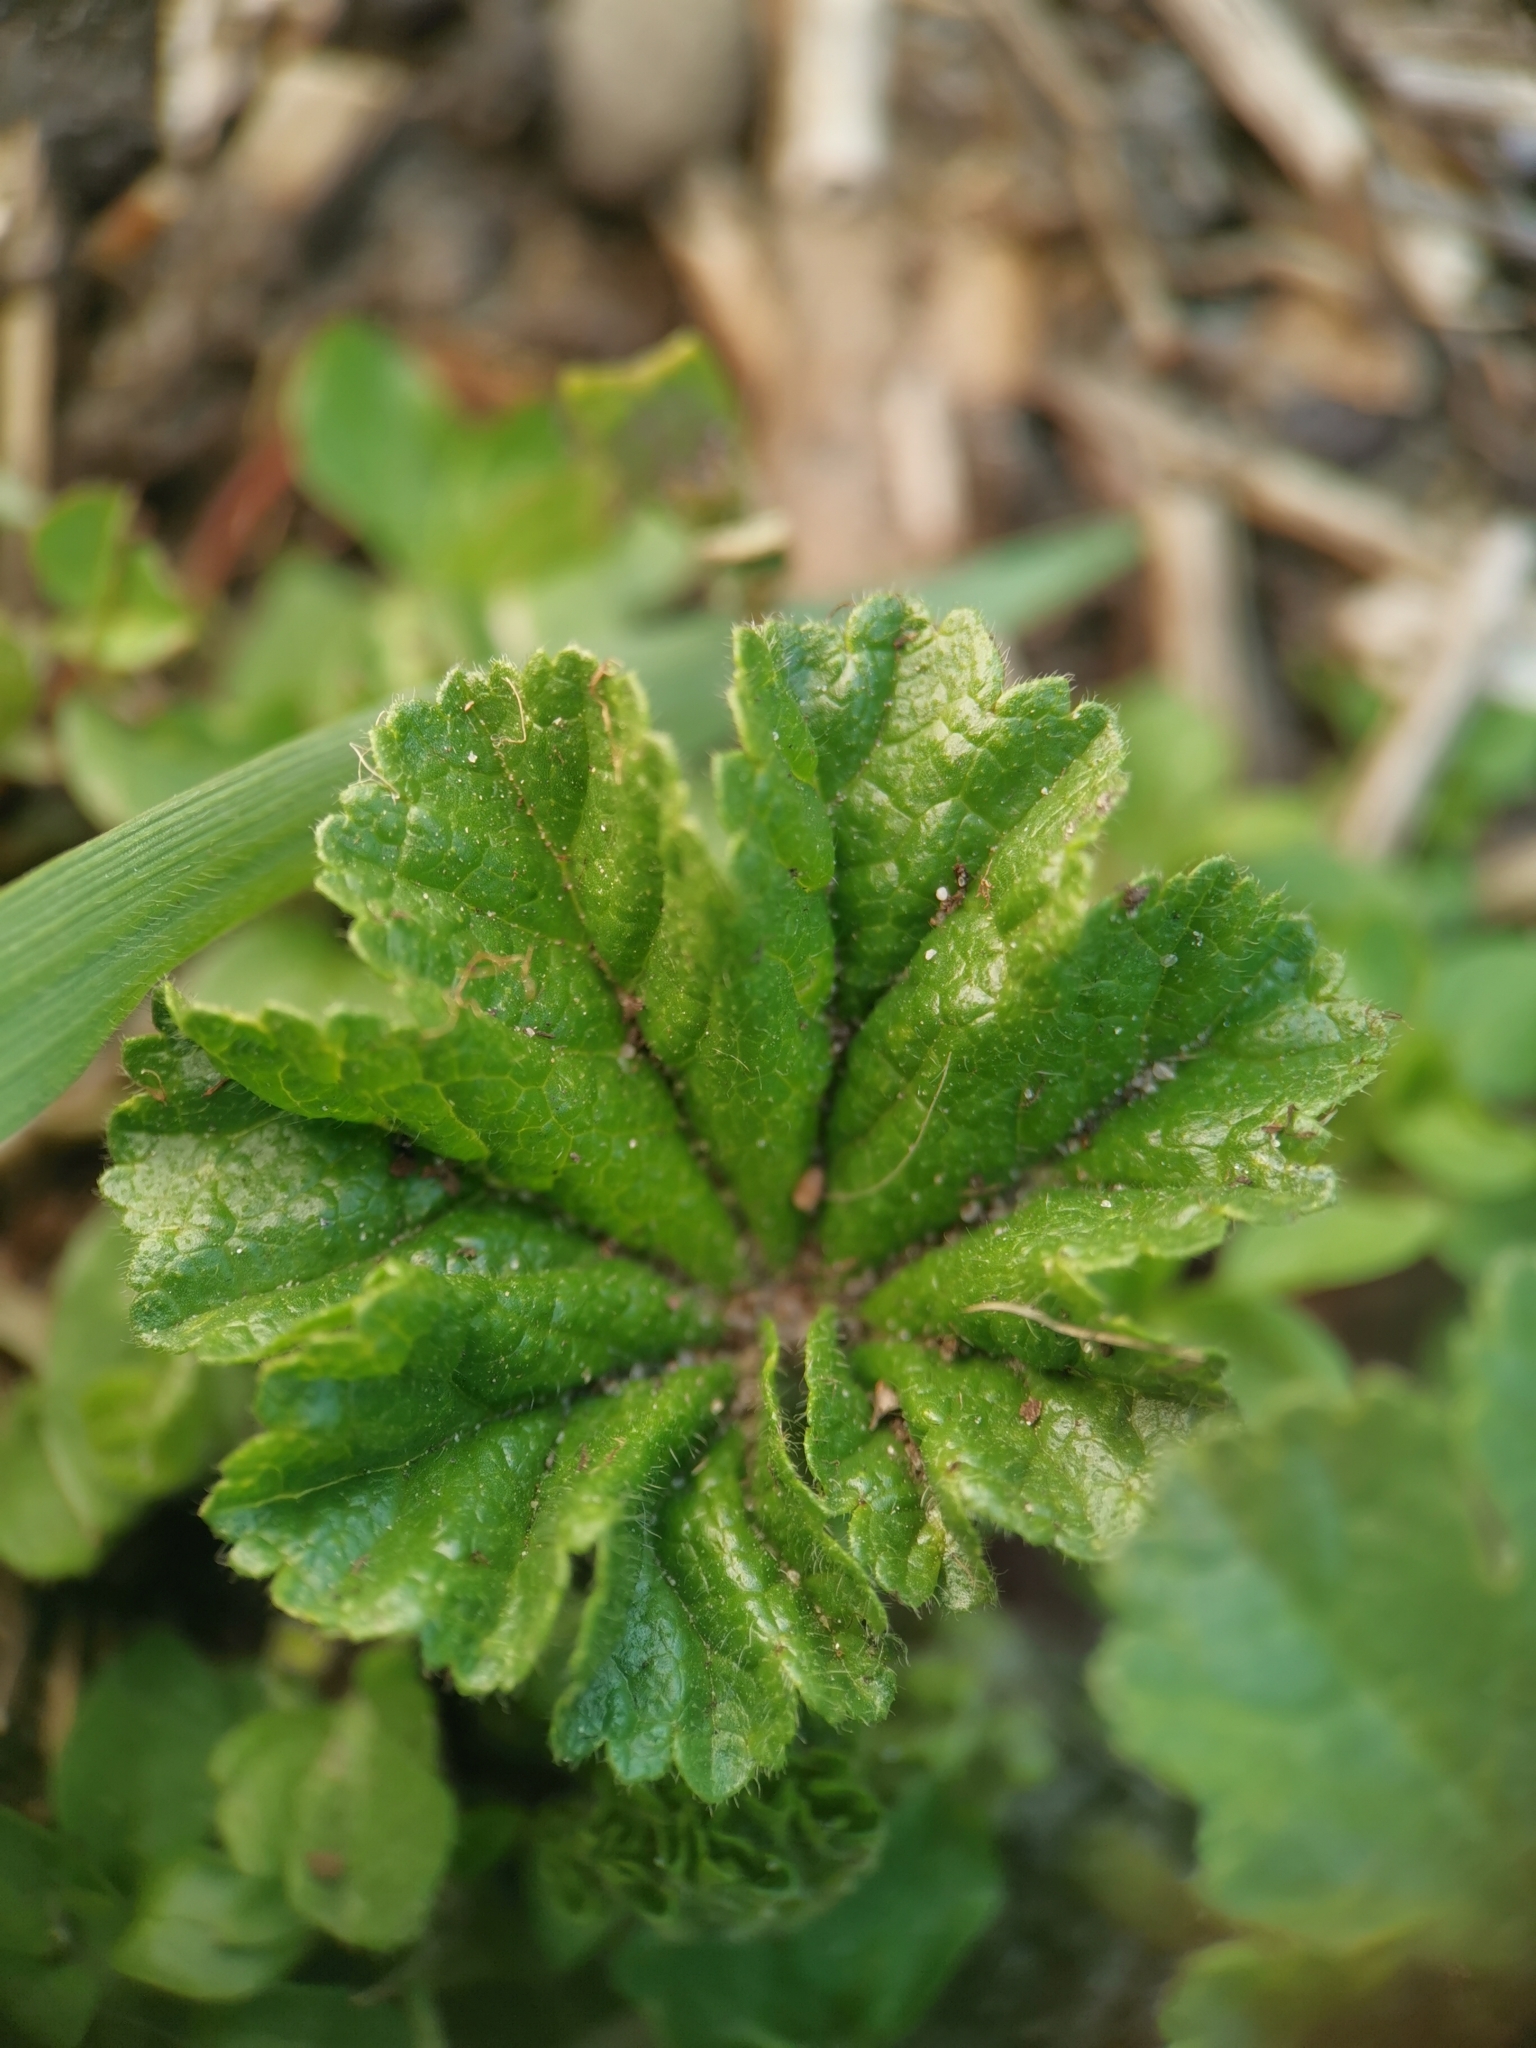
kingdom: Plantae
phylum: Tracheophyta
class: Magnoliopsida
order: Malvales
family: Malvaceae
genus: Malva
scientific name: Malva sylvestris
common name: Common mallow
